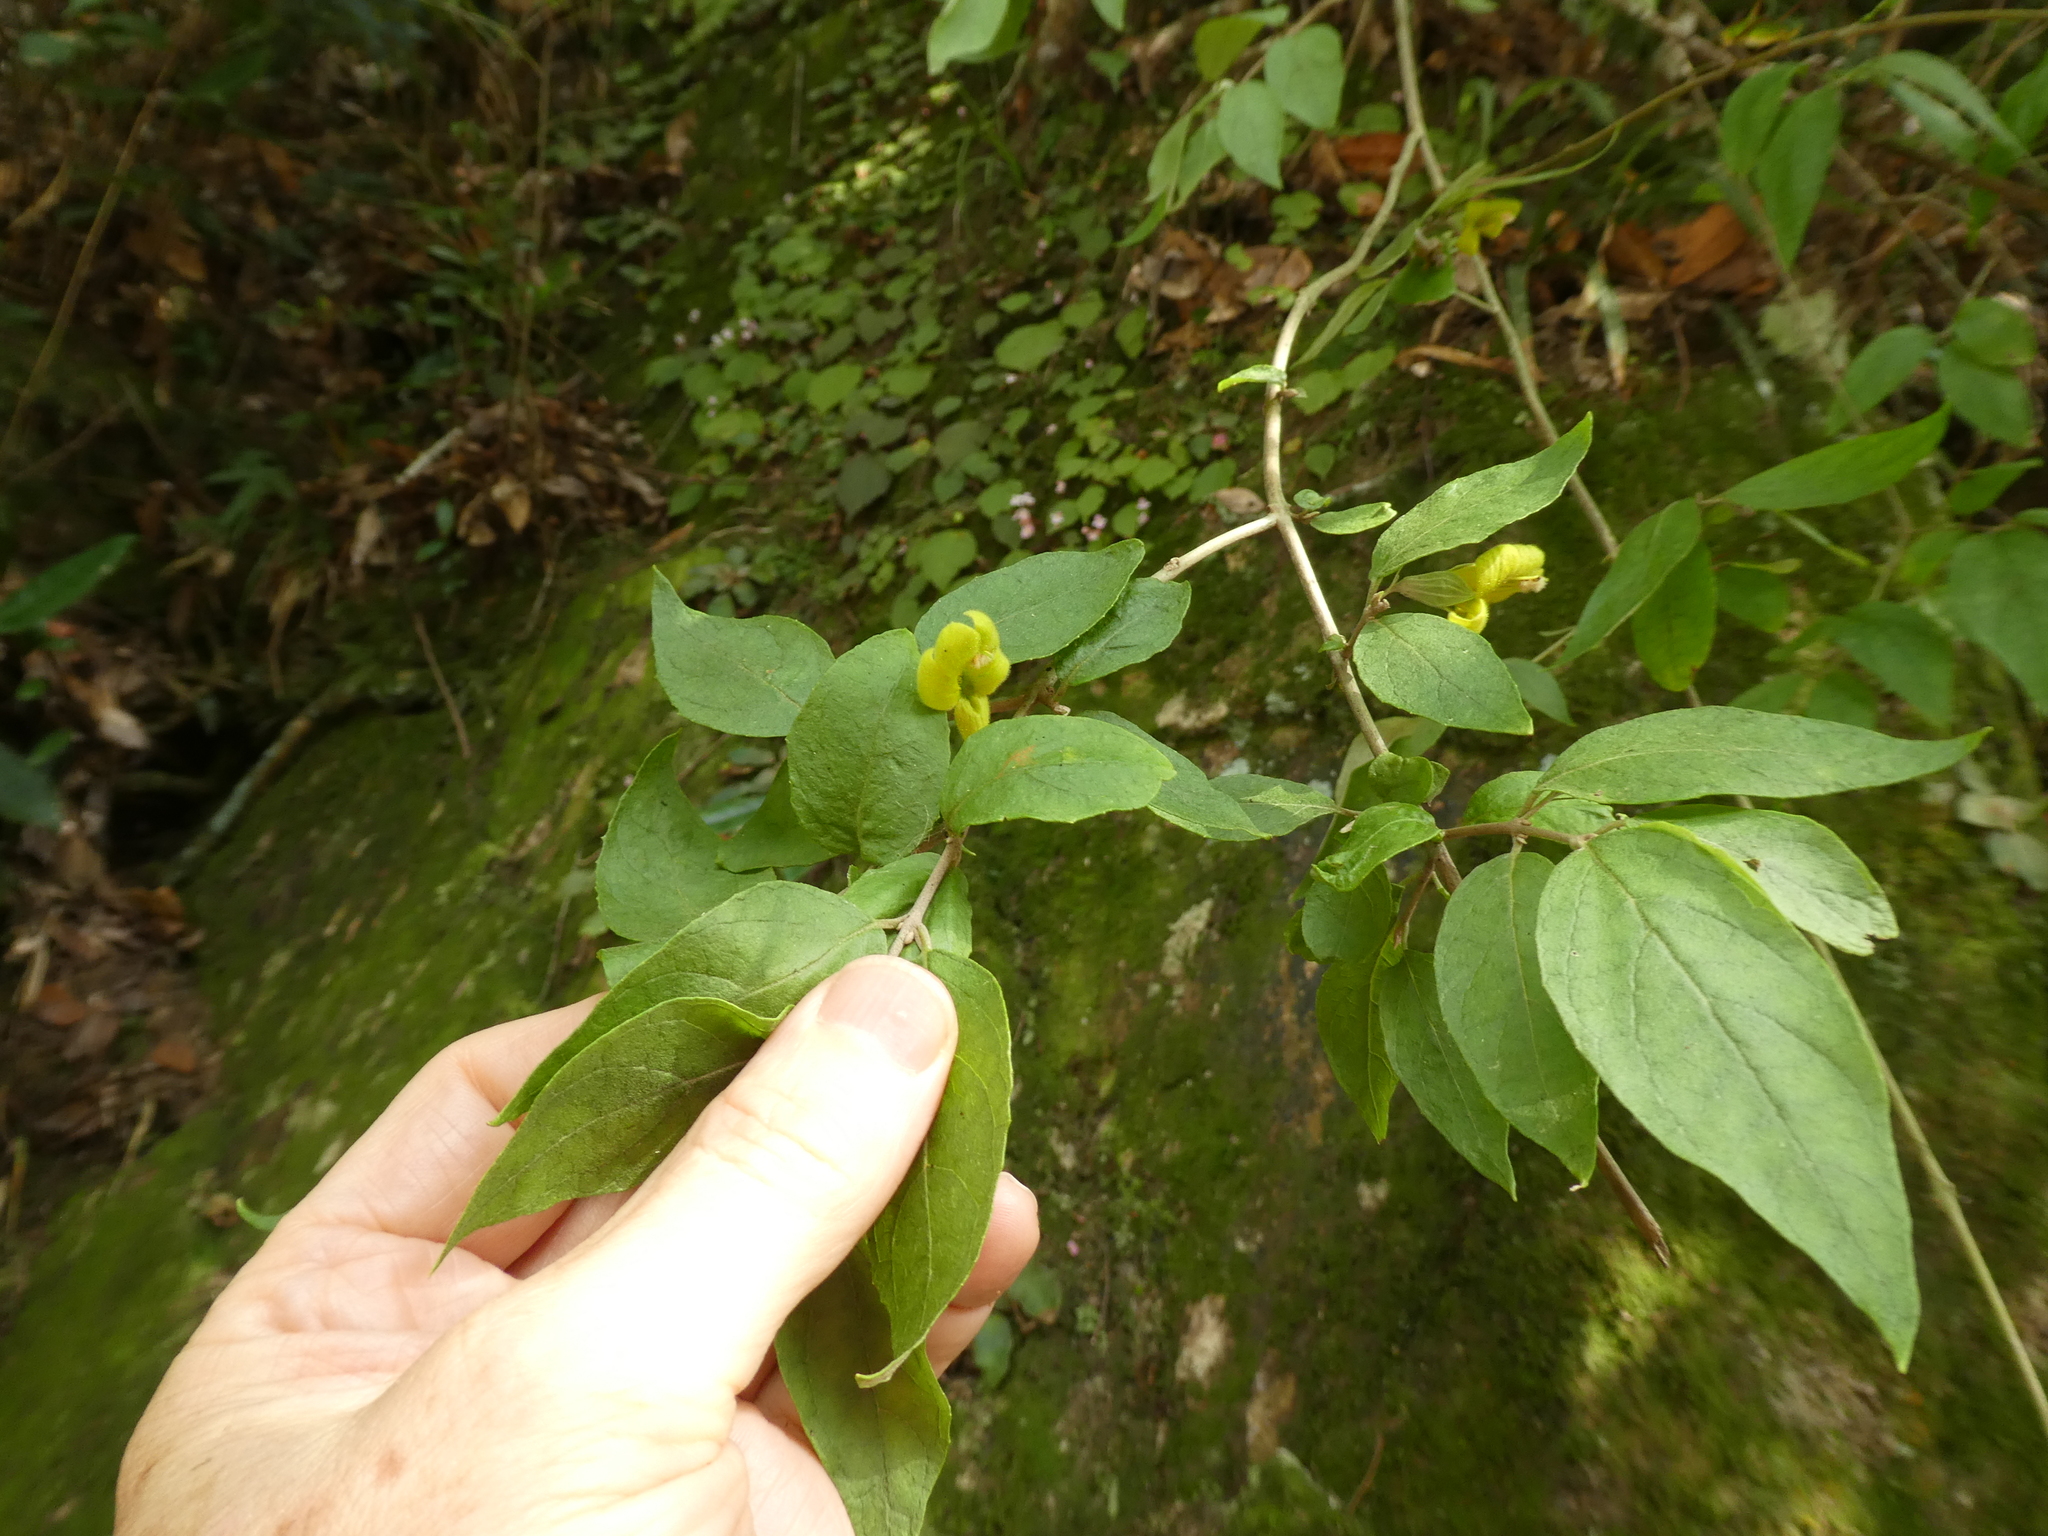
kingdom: Plantae
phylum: Tracheophyta
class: Magnoliopsida
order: Lamiales
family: Orobanchaceae
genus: Brandisia
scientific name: Brandisia swinglei
